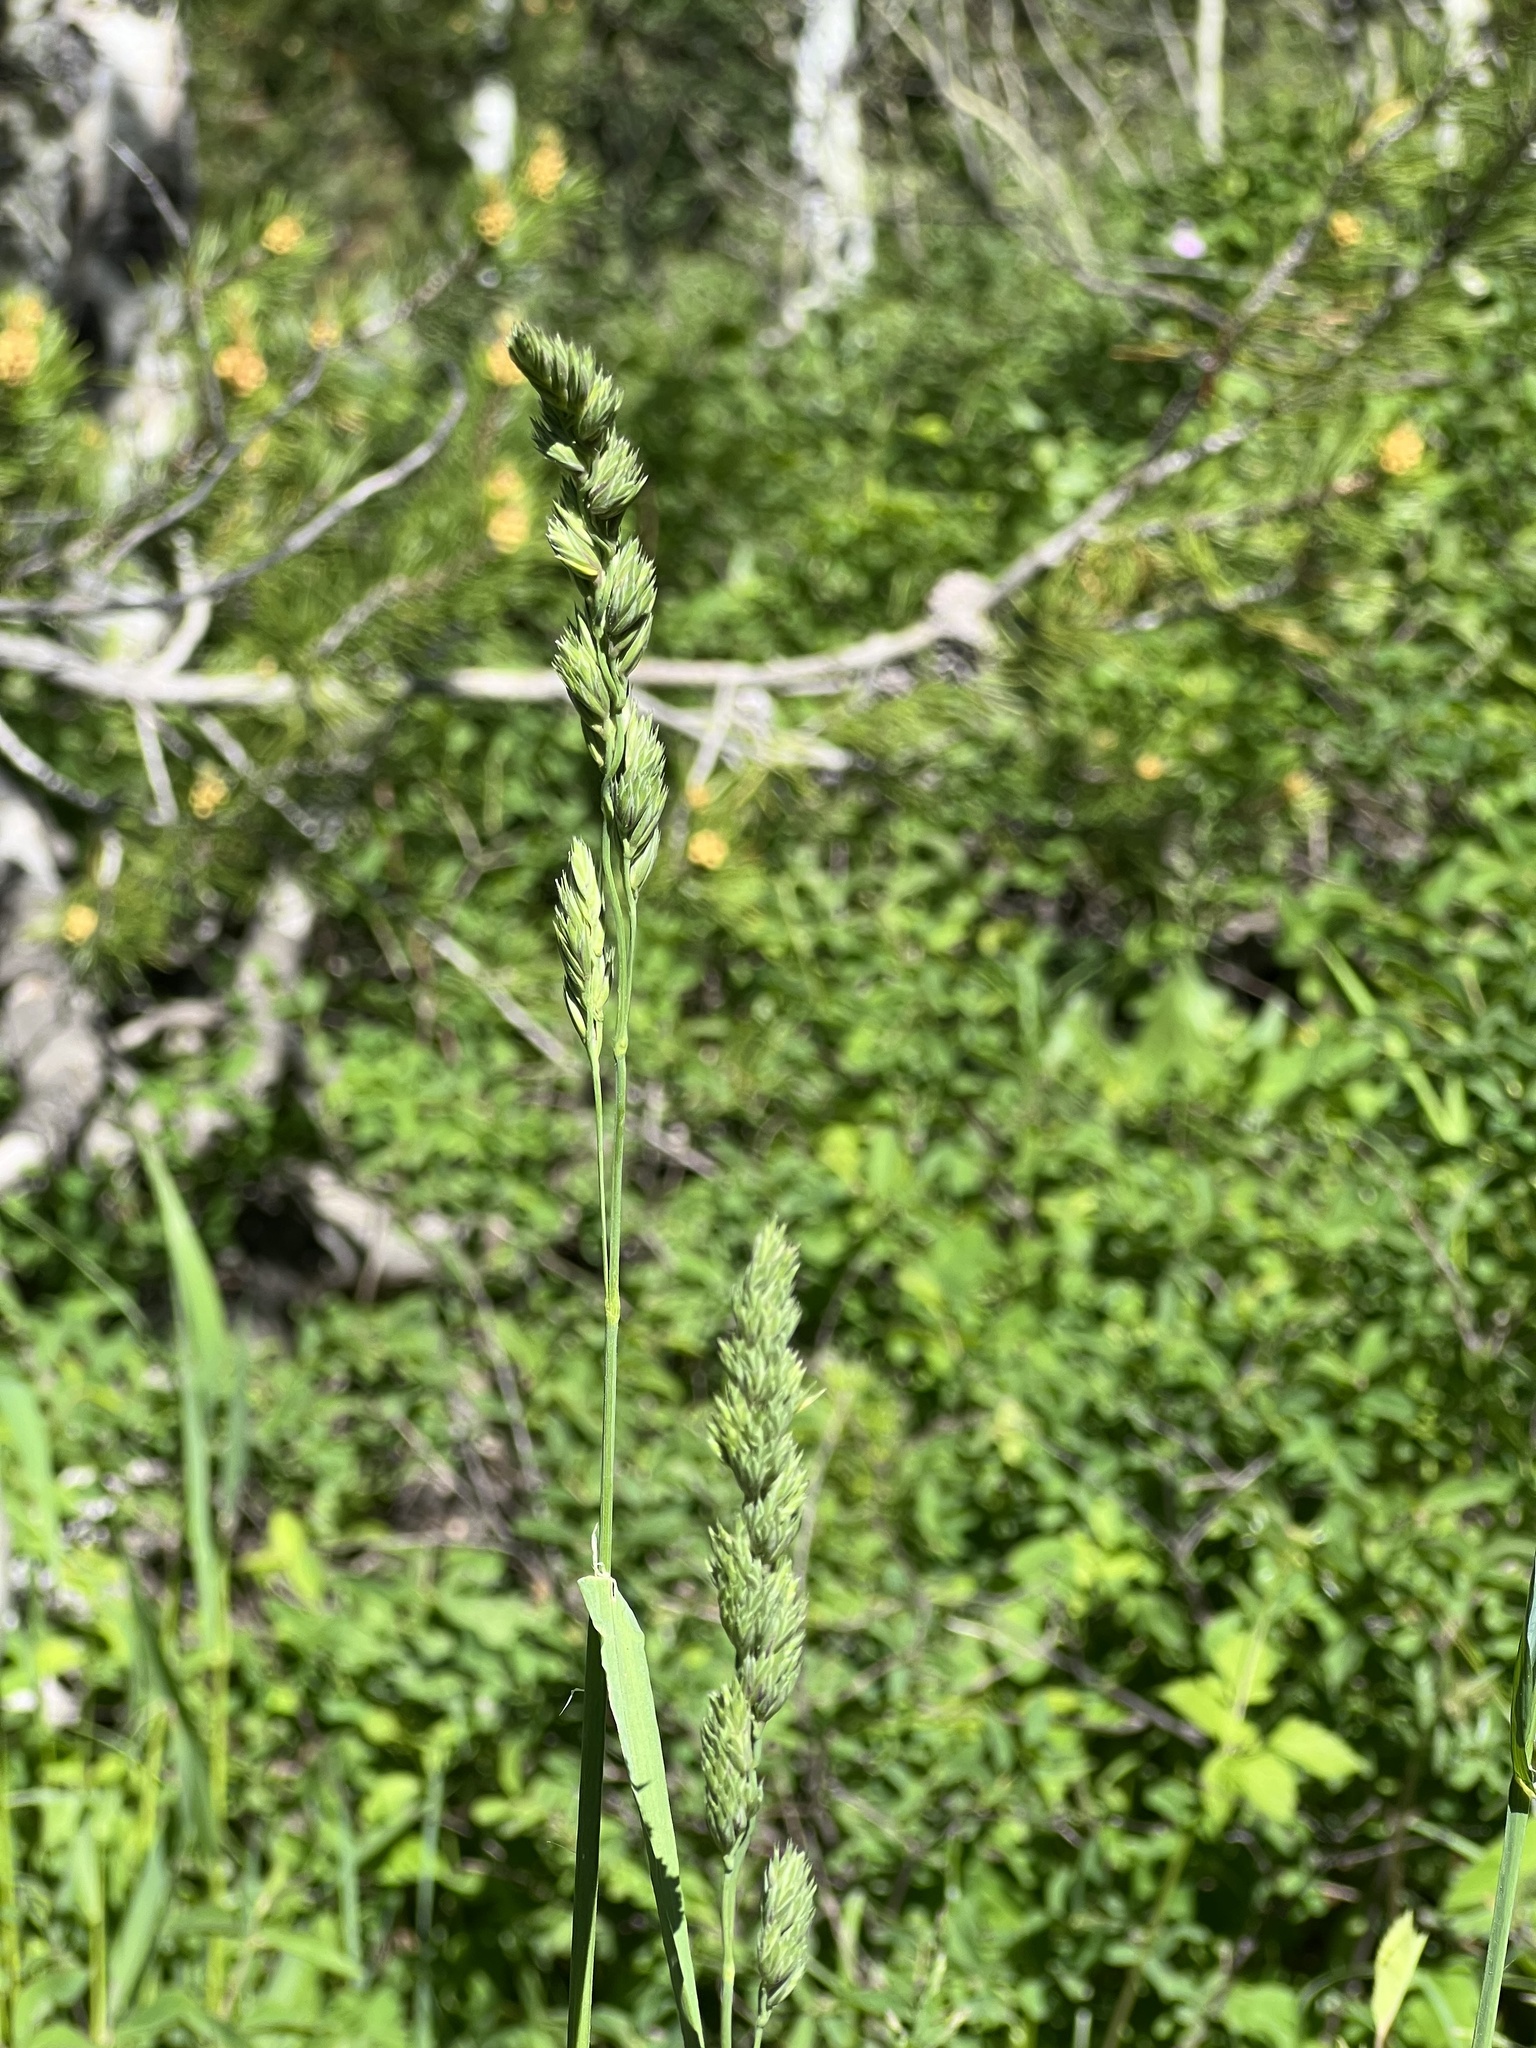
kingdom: Plantae
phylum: Tracheophyta
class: Liliopsida
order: Poales
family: Poaceae
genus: Dactylis
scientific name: Dactylis glomerata
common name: Orchardgrass
